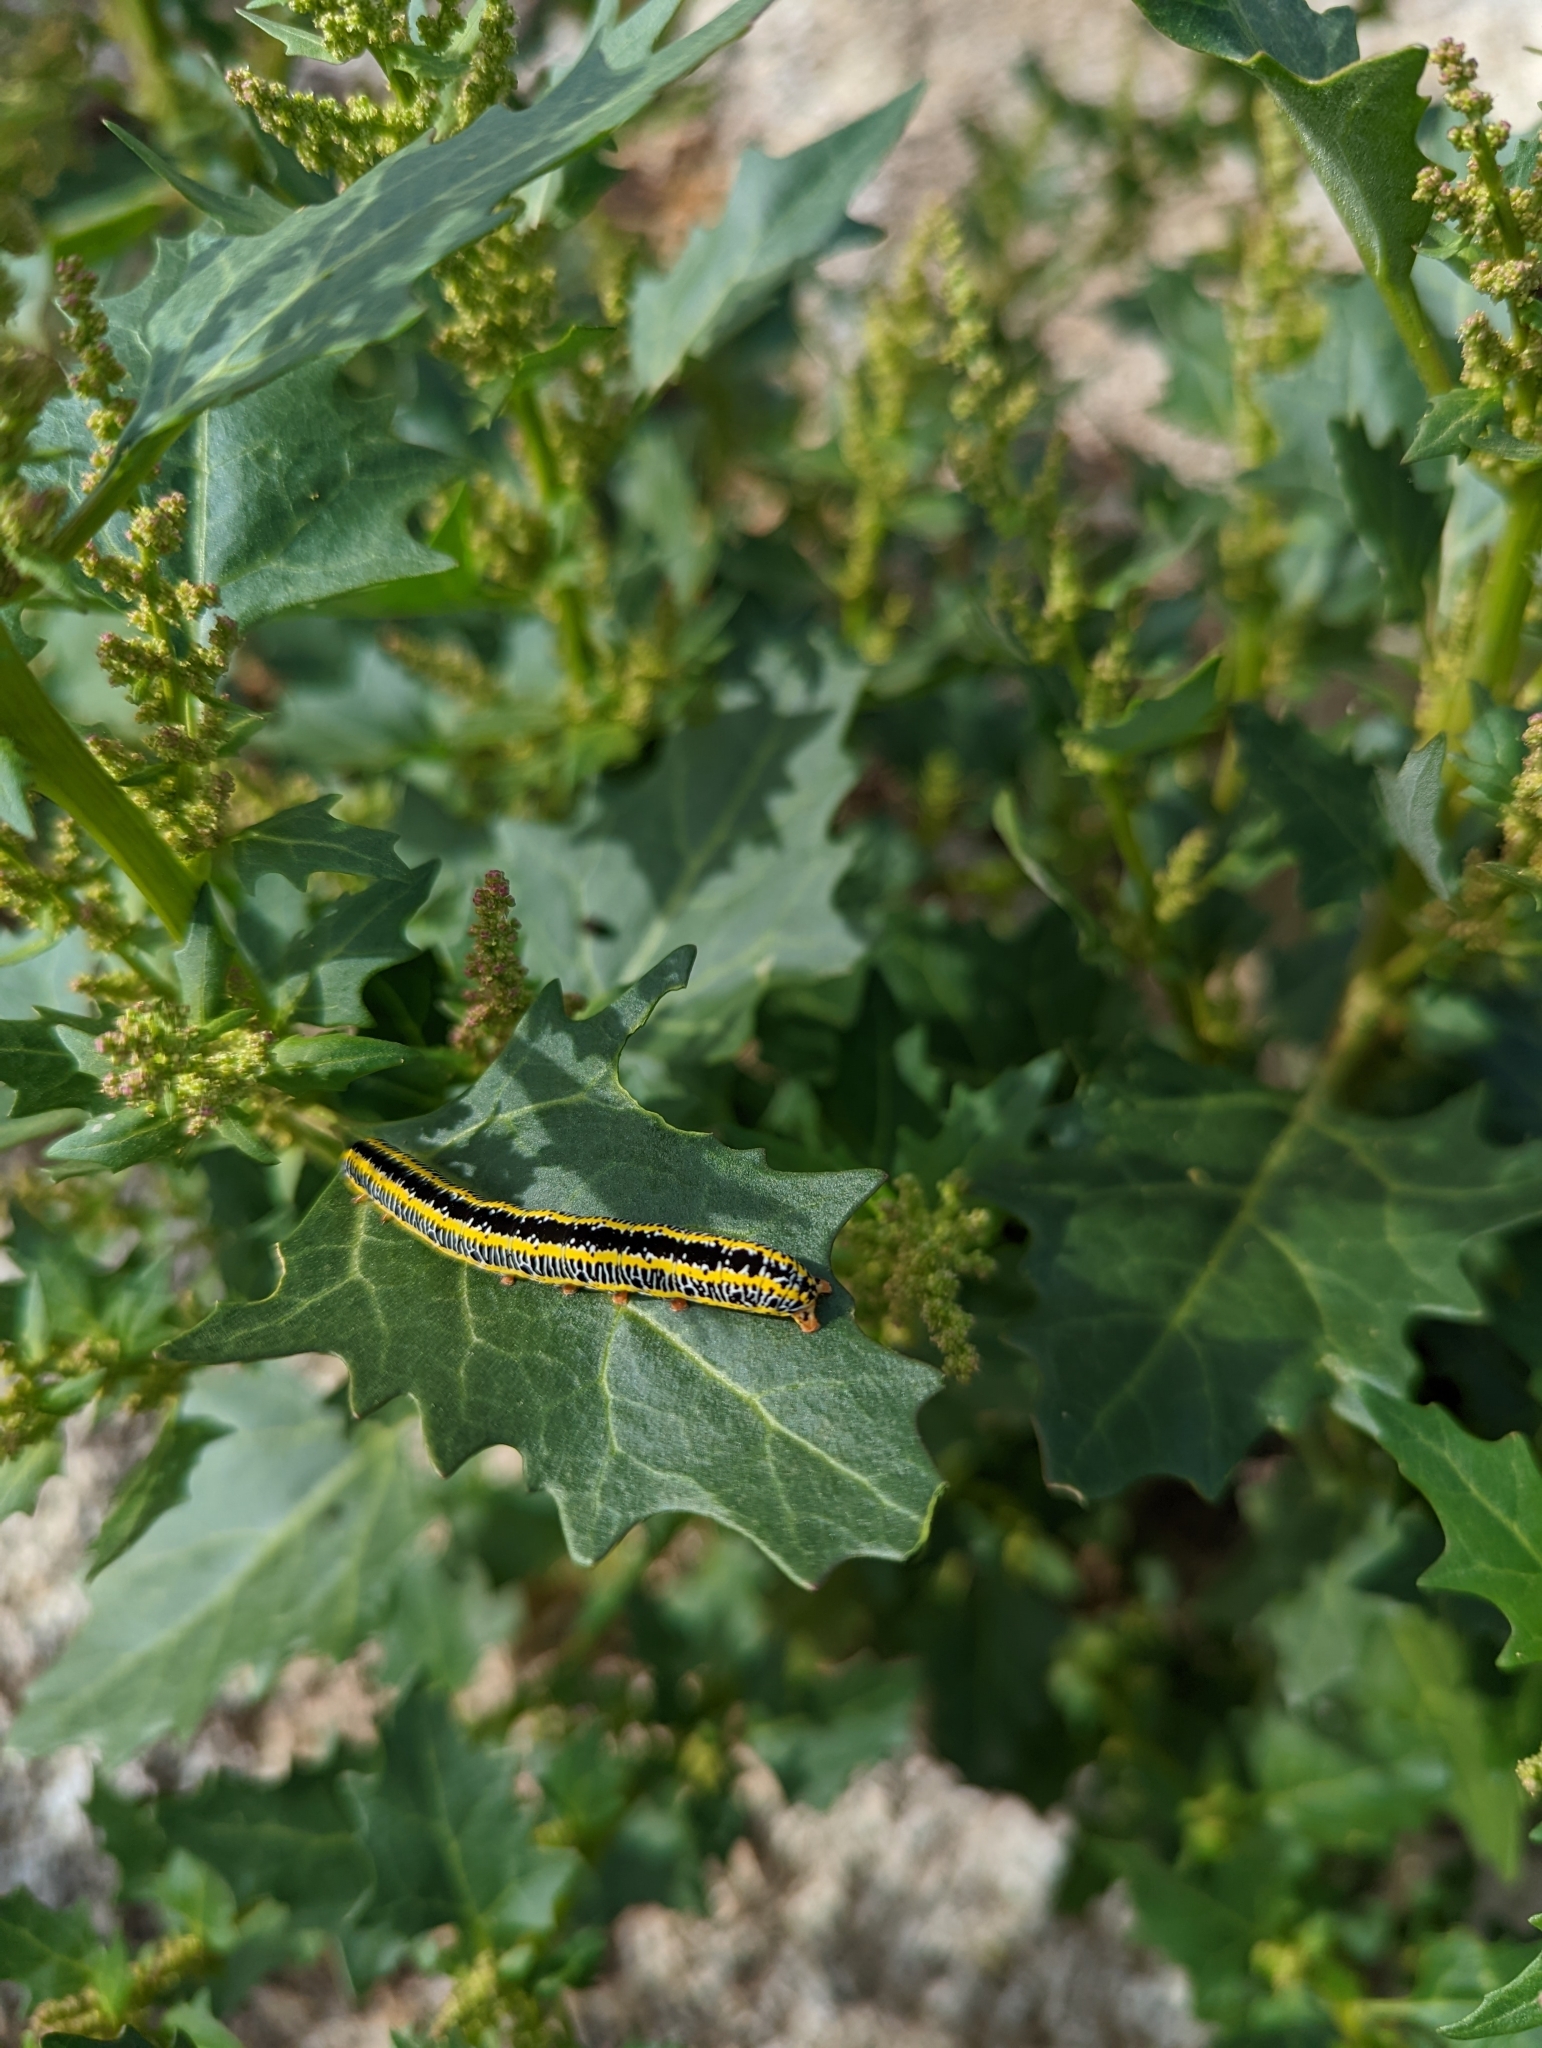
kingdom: Animalia
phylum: Arthropoda
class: Insecta
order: Lepidoptera
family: Noctuidae
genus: Melanchra
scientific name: Melanchra picta
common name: Zebra caterpillar
